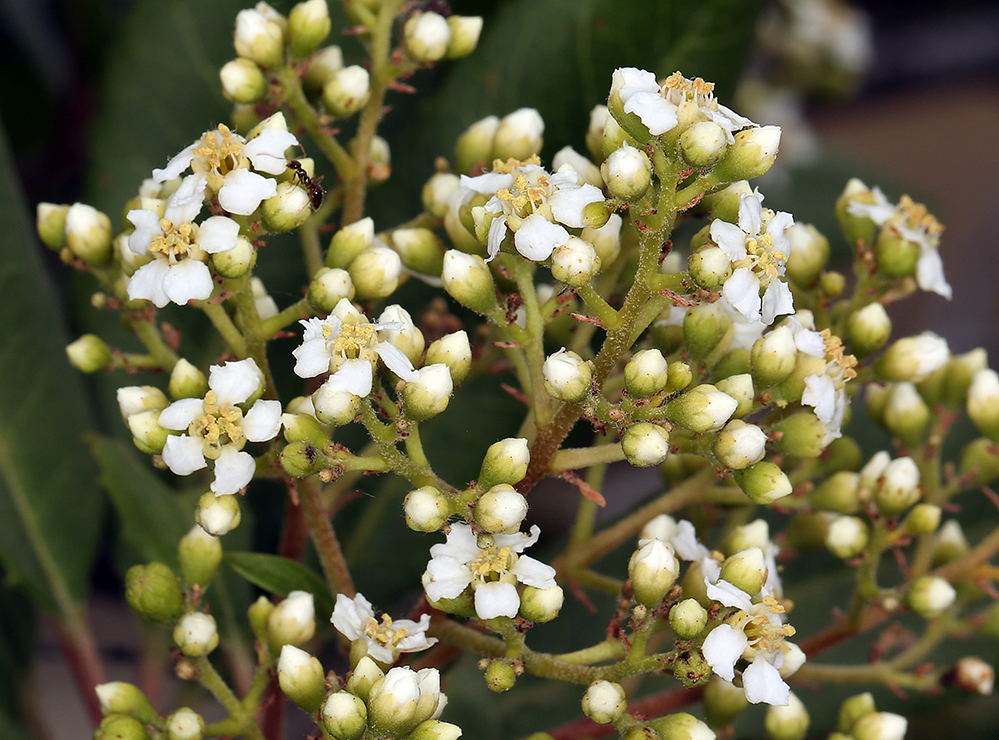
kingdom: Plantae
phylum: Tracheophyta
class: Magnoliopsida
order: Rosales
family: Rosaceae
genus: Heteromeles
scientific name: Heteromeles arbutifolia
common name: California-holly
